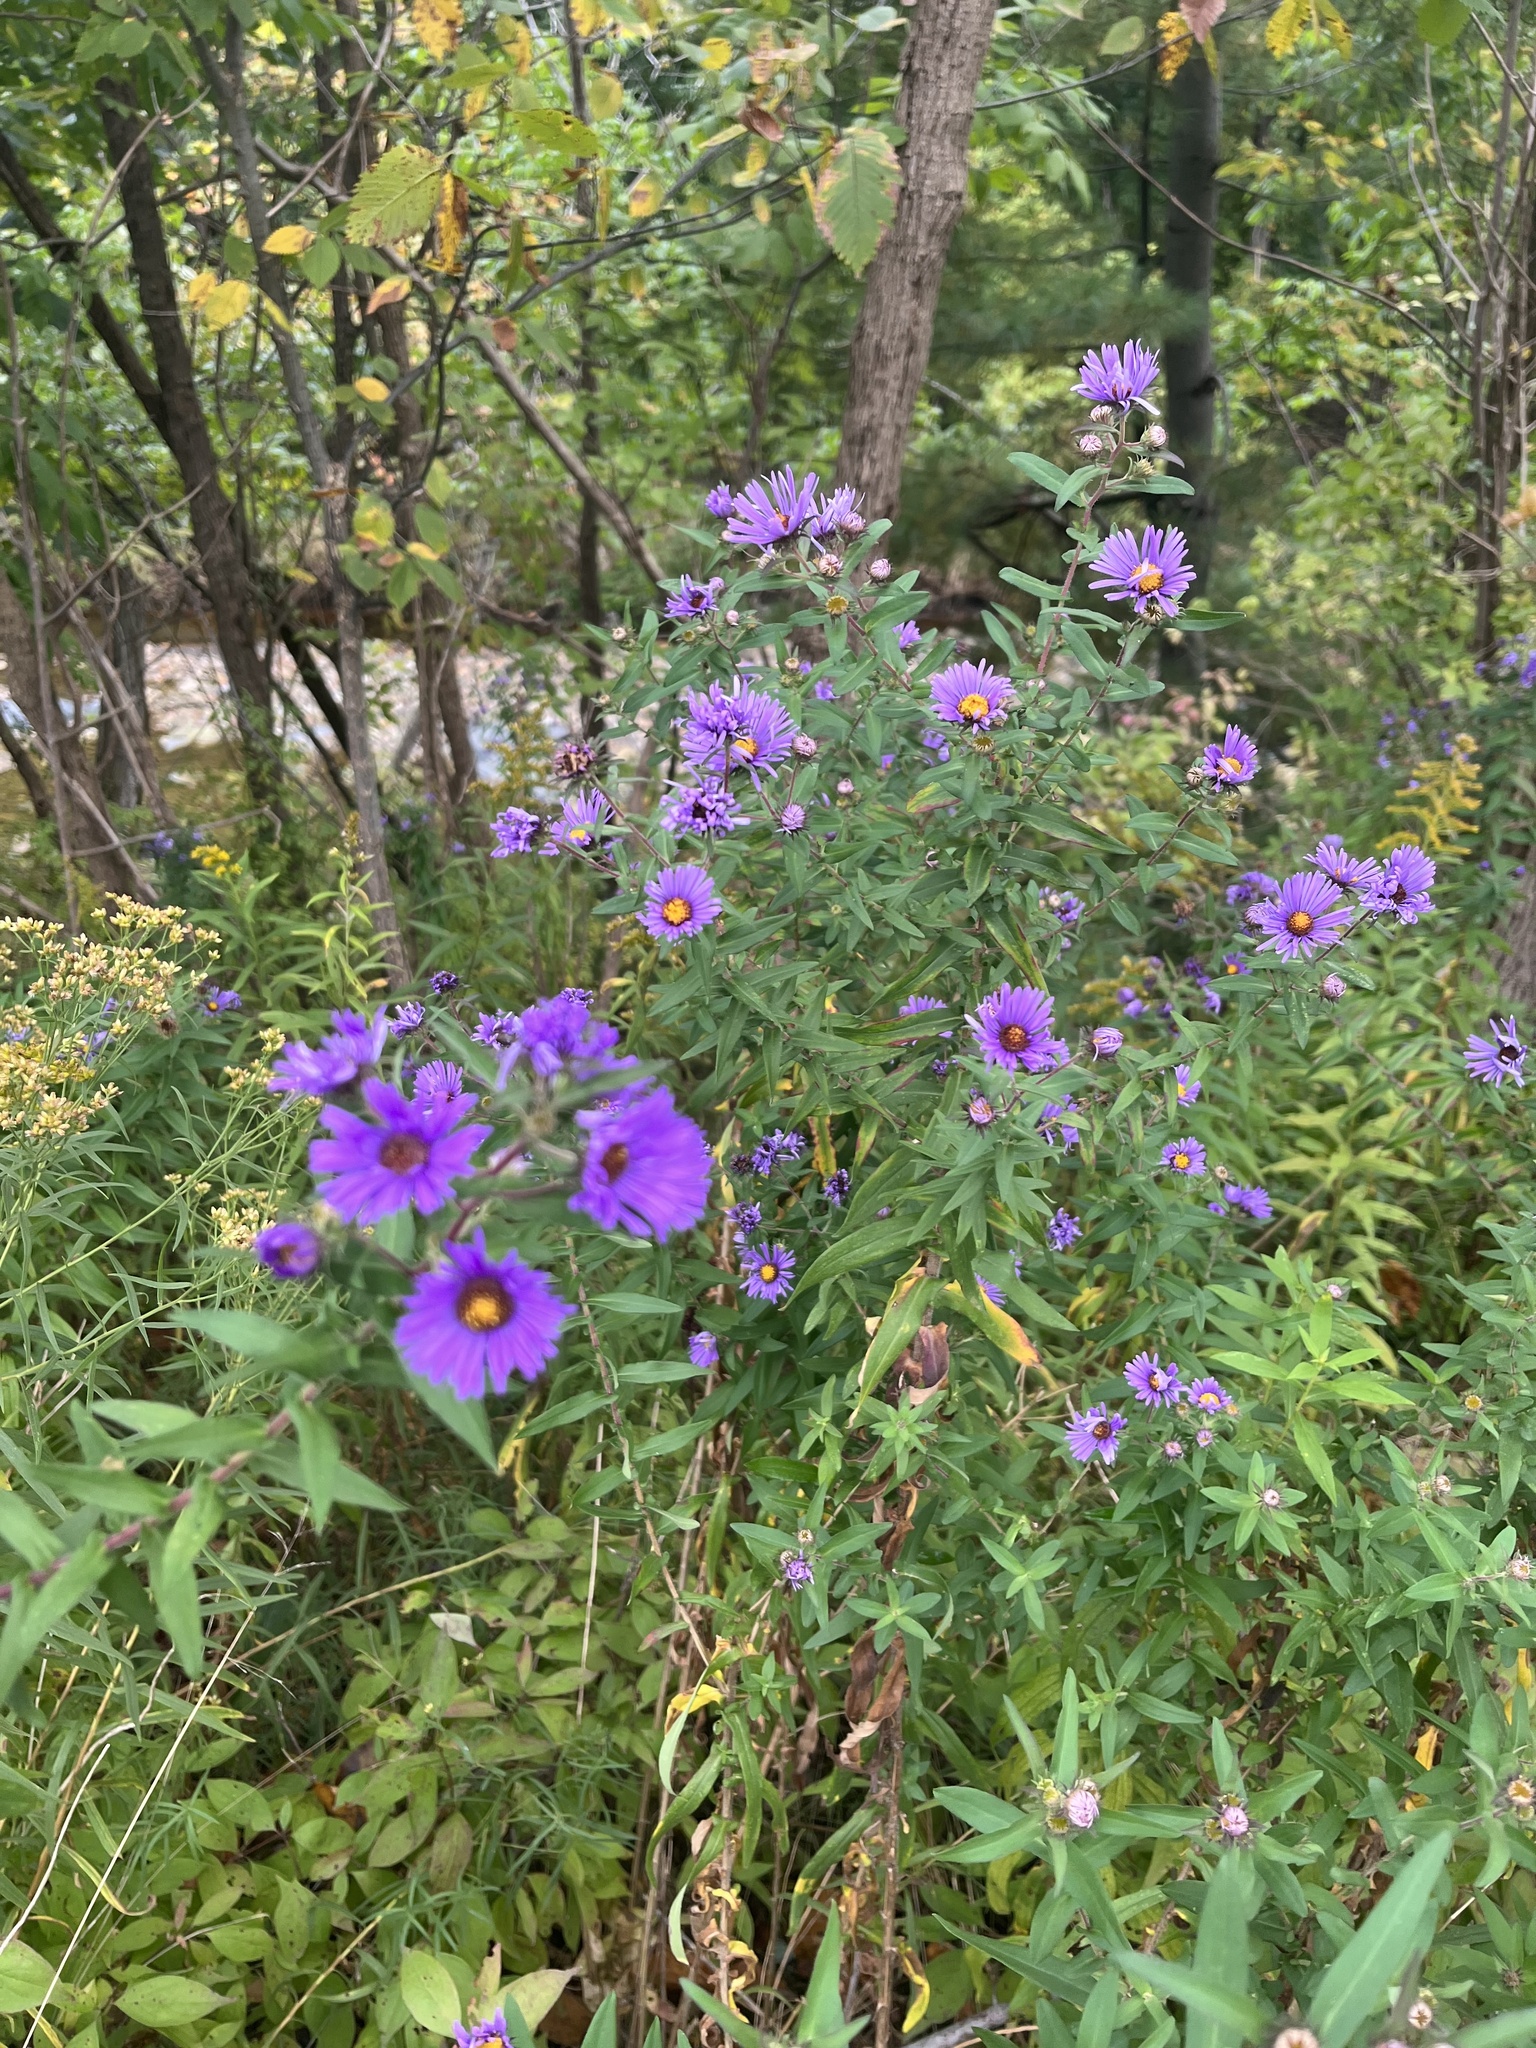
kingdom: Plantae
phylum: Tracheophyta
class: Magnoliopsida
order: Asterales
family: Asteraceae
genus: Symphyotrichum
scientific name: Symphyotrichum novae-angliae
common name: Michaelmas daisy
